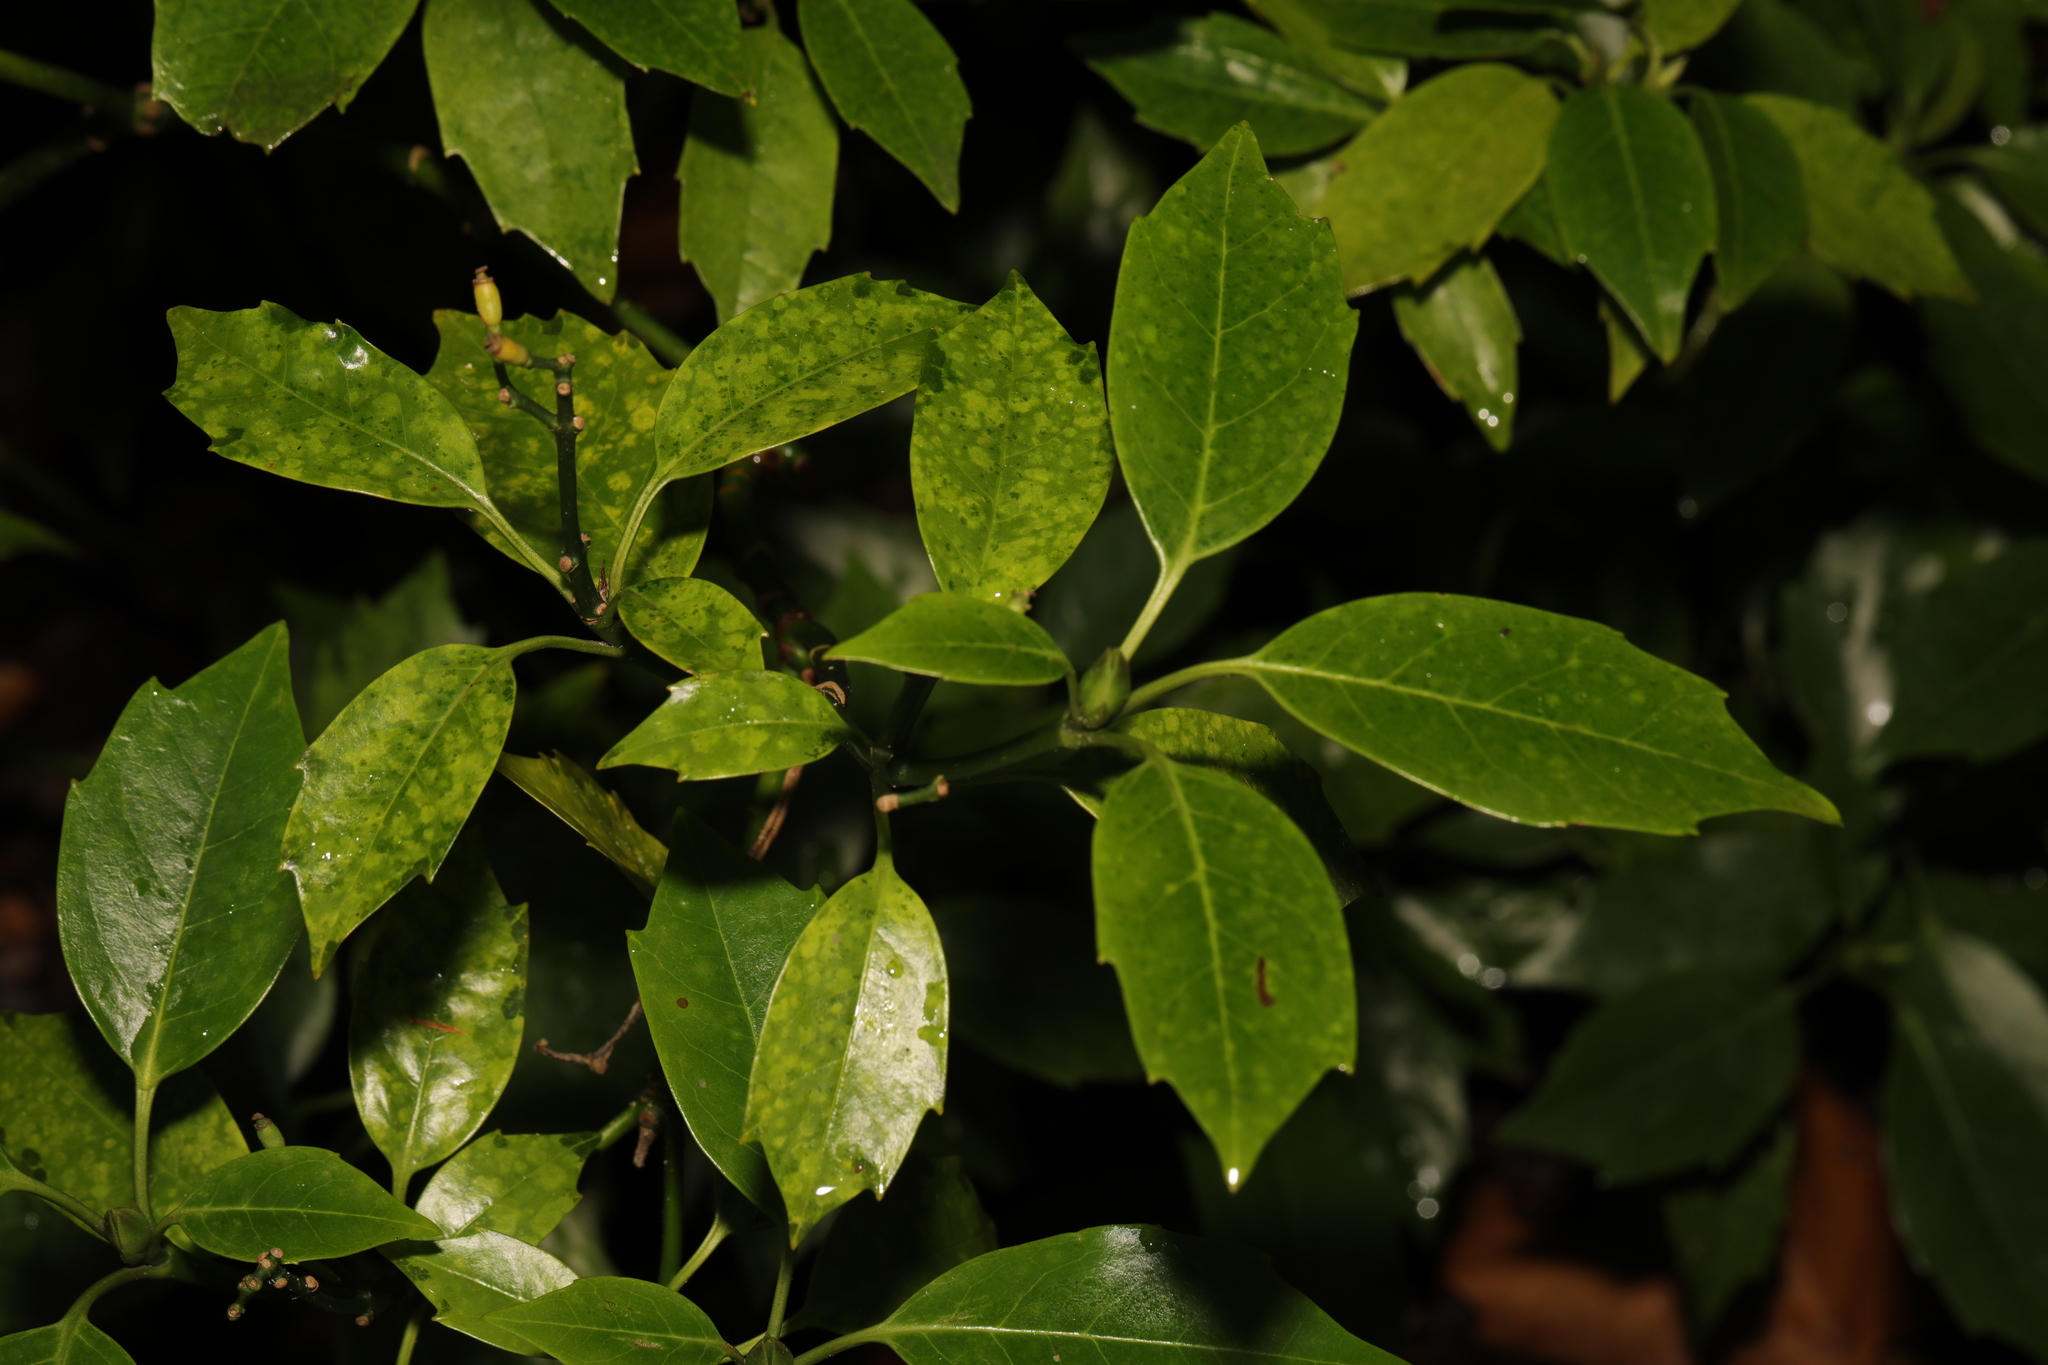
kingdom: Plantae
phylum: Tracheophyta
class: Magnoliopsida
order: Garryales
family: Garryaceae
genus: Aucuba
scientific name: Aucuba japonica
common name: Spotted-laurel
